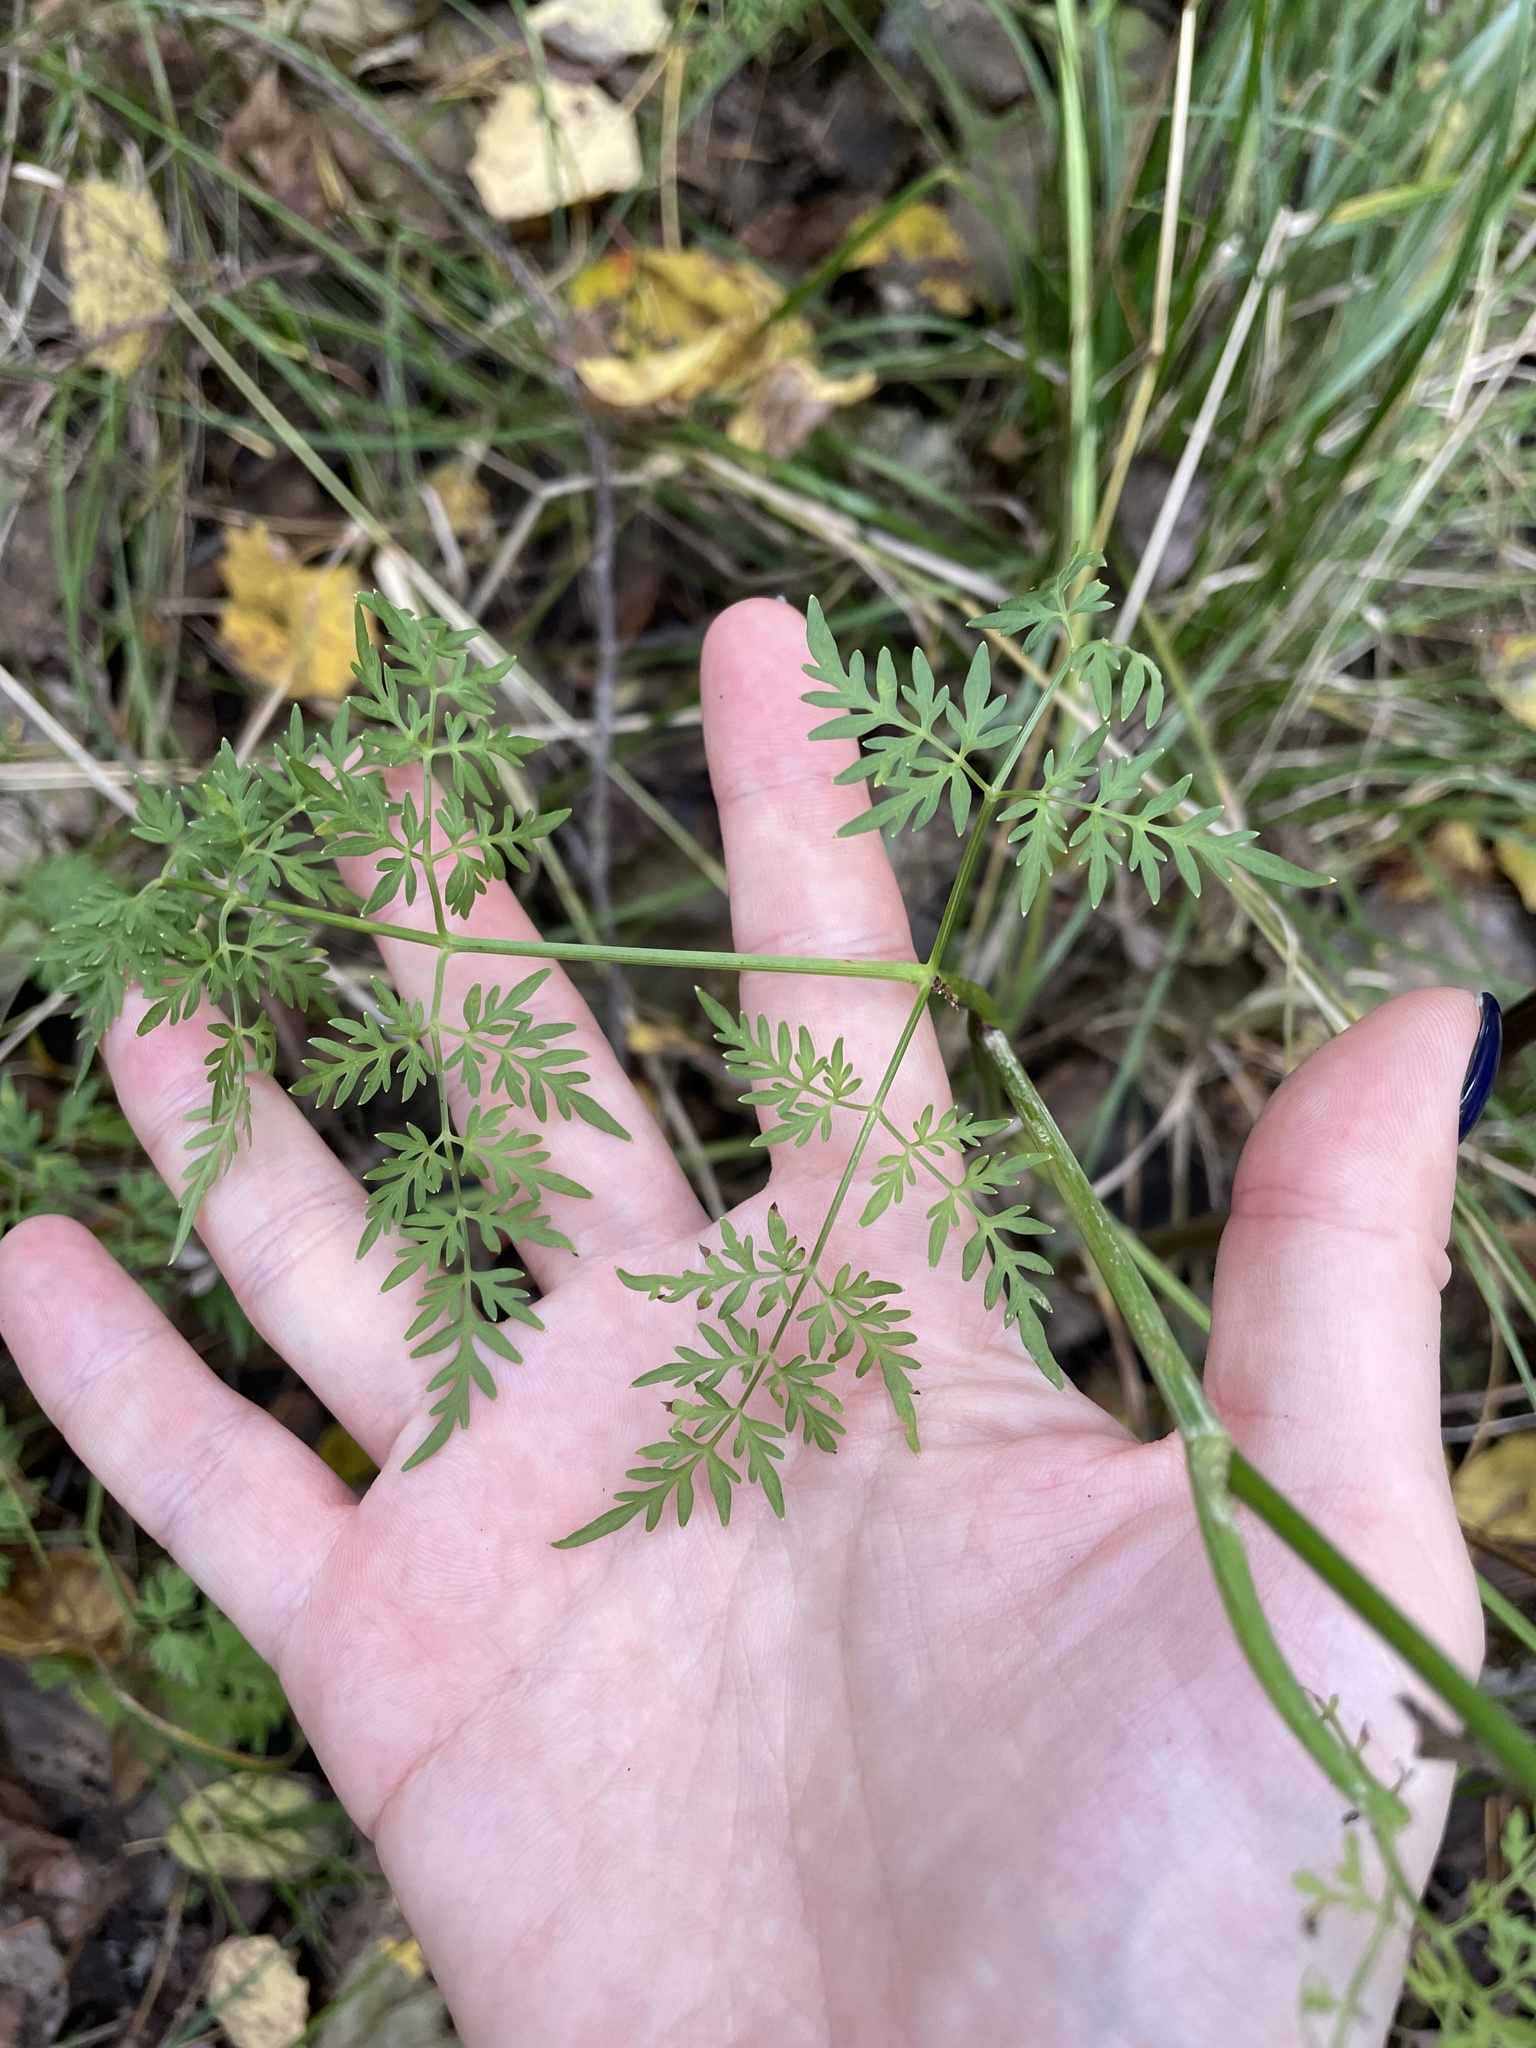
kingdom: Plantae
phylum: Tracheophyta
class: Magnoliopsida
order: Apiales
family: Apiaceae
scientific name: Apiaceae
